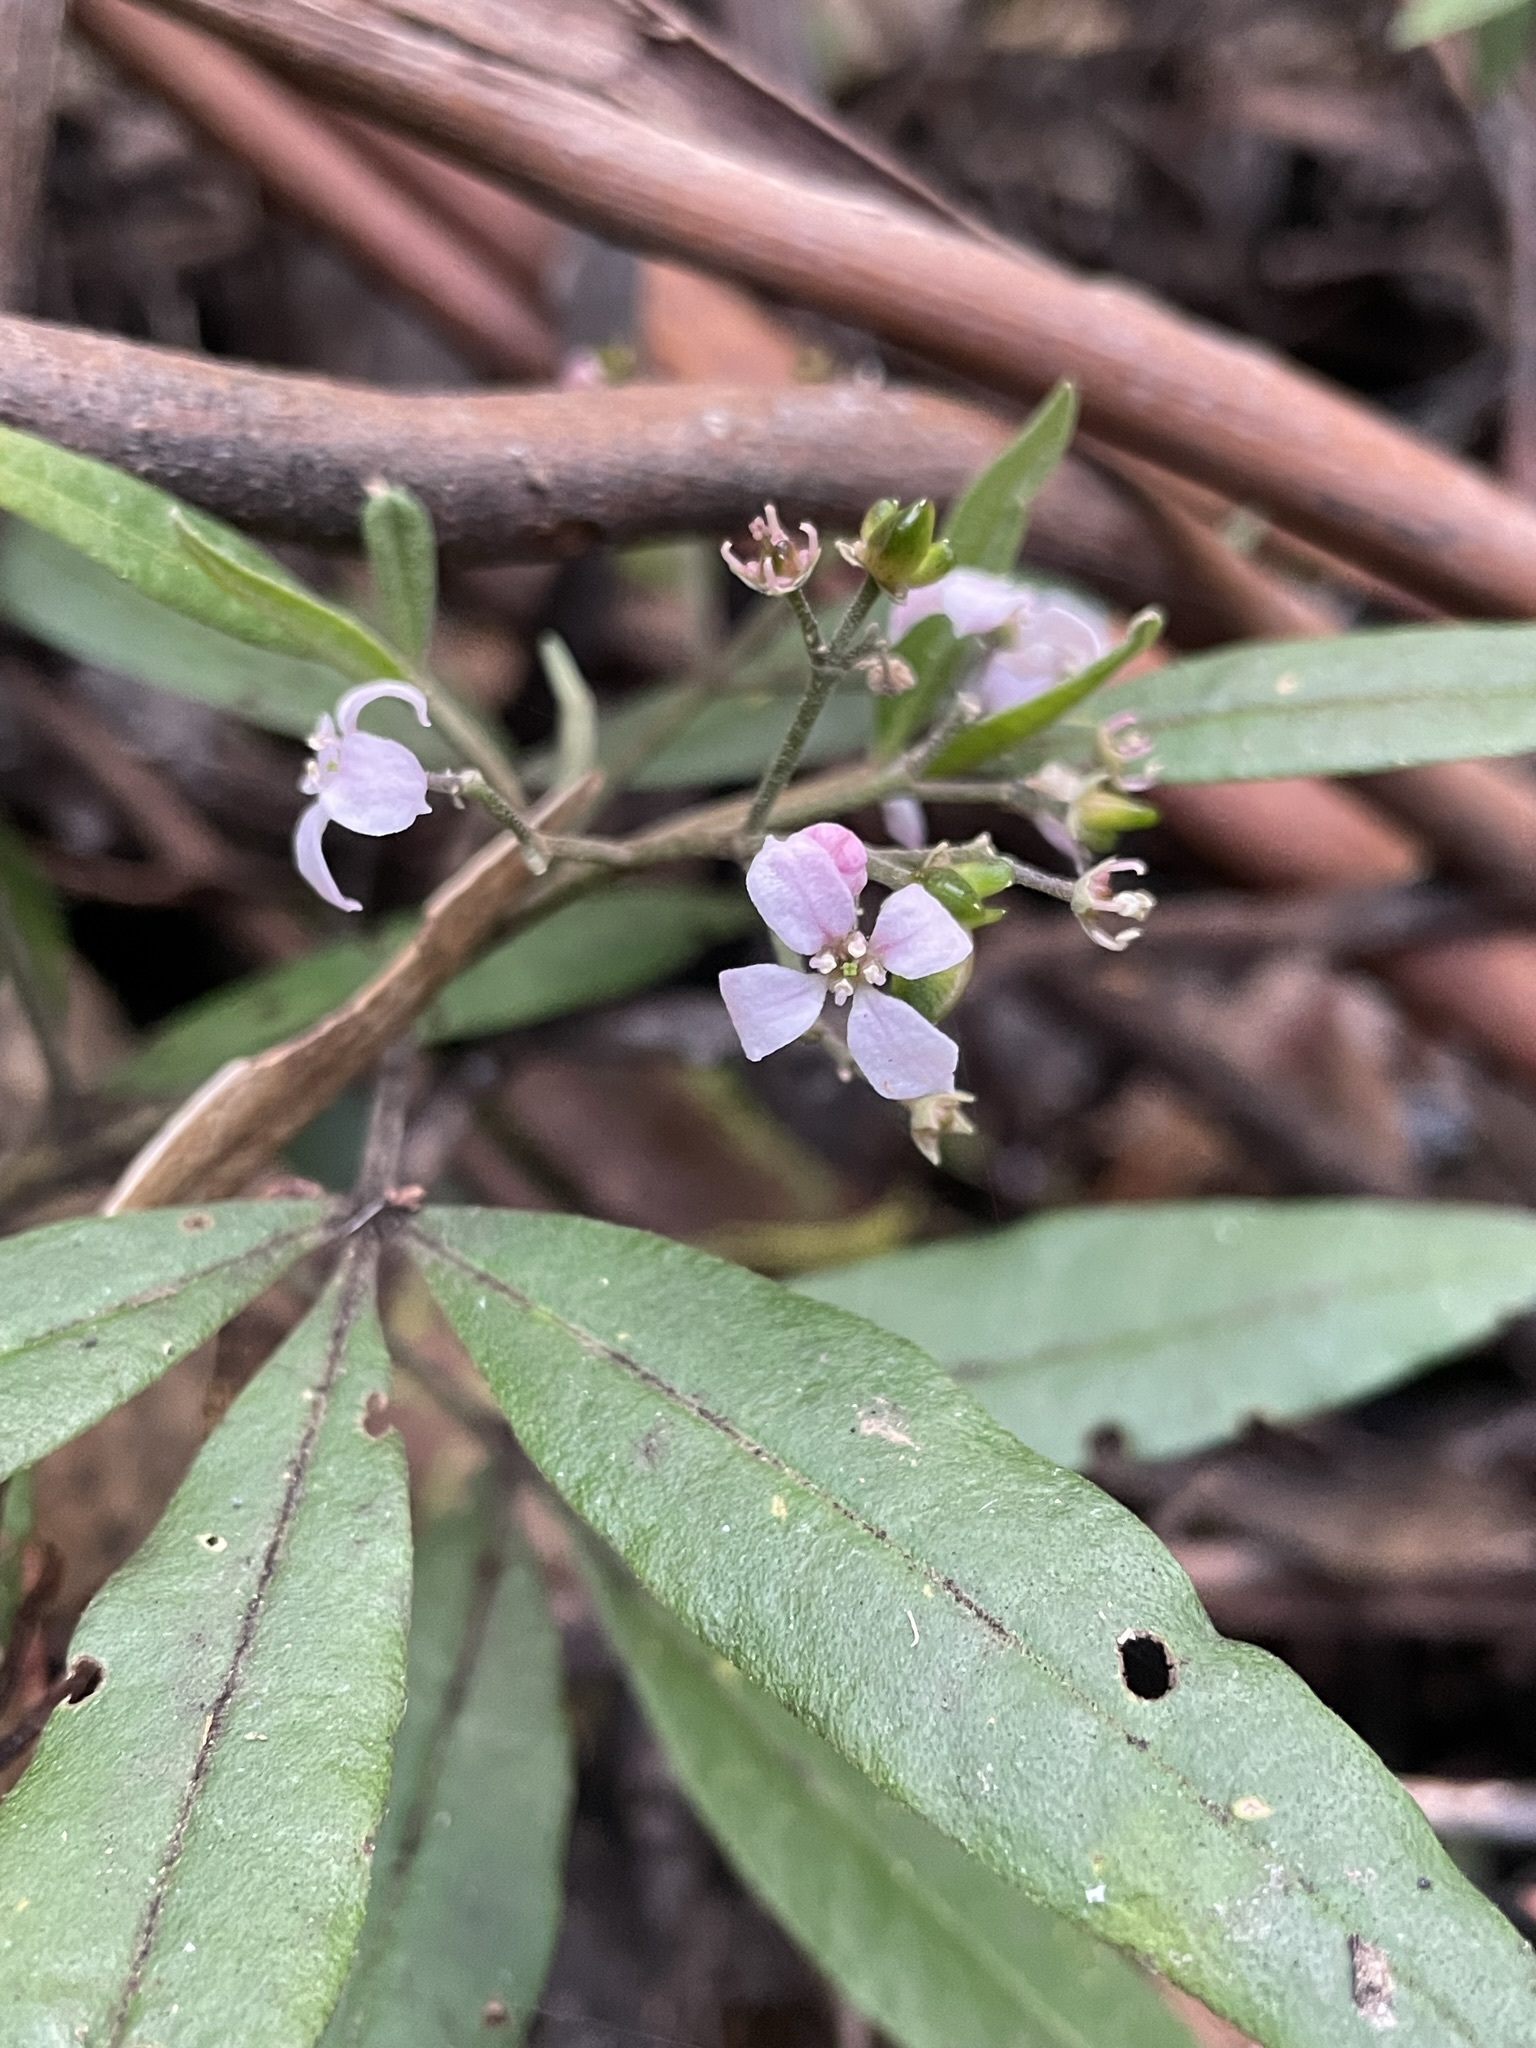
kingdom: Plantae
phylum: Tracheophyta
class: Magnoliopsida
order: Sapindales
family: Rutaceae
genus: Zieria
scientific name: Zieria arborescens
